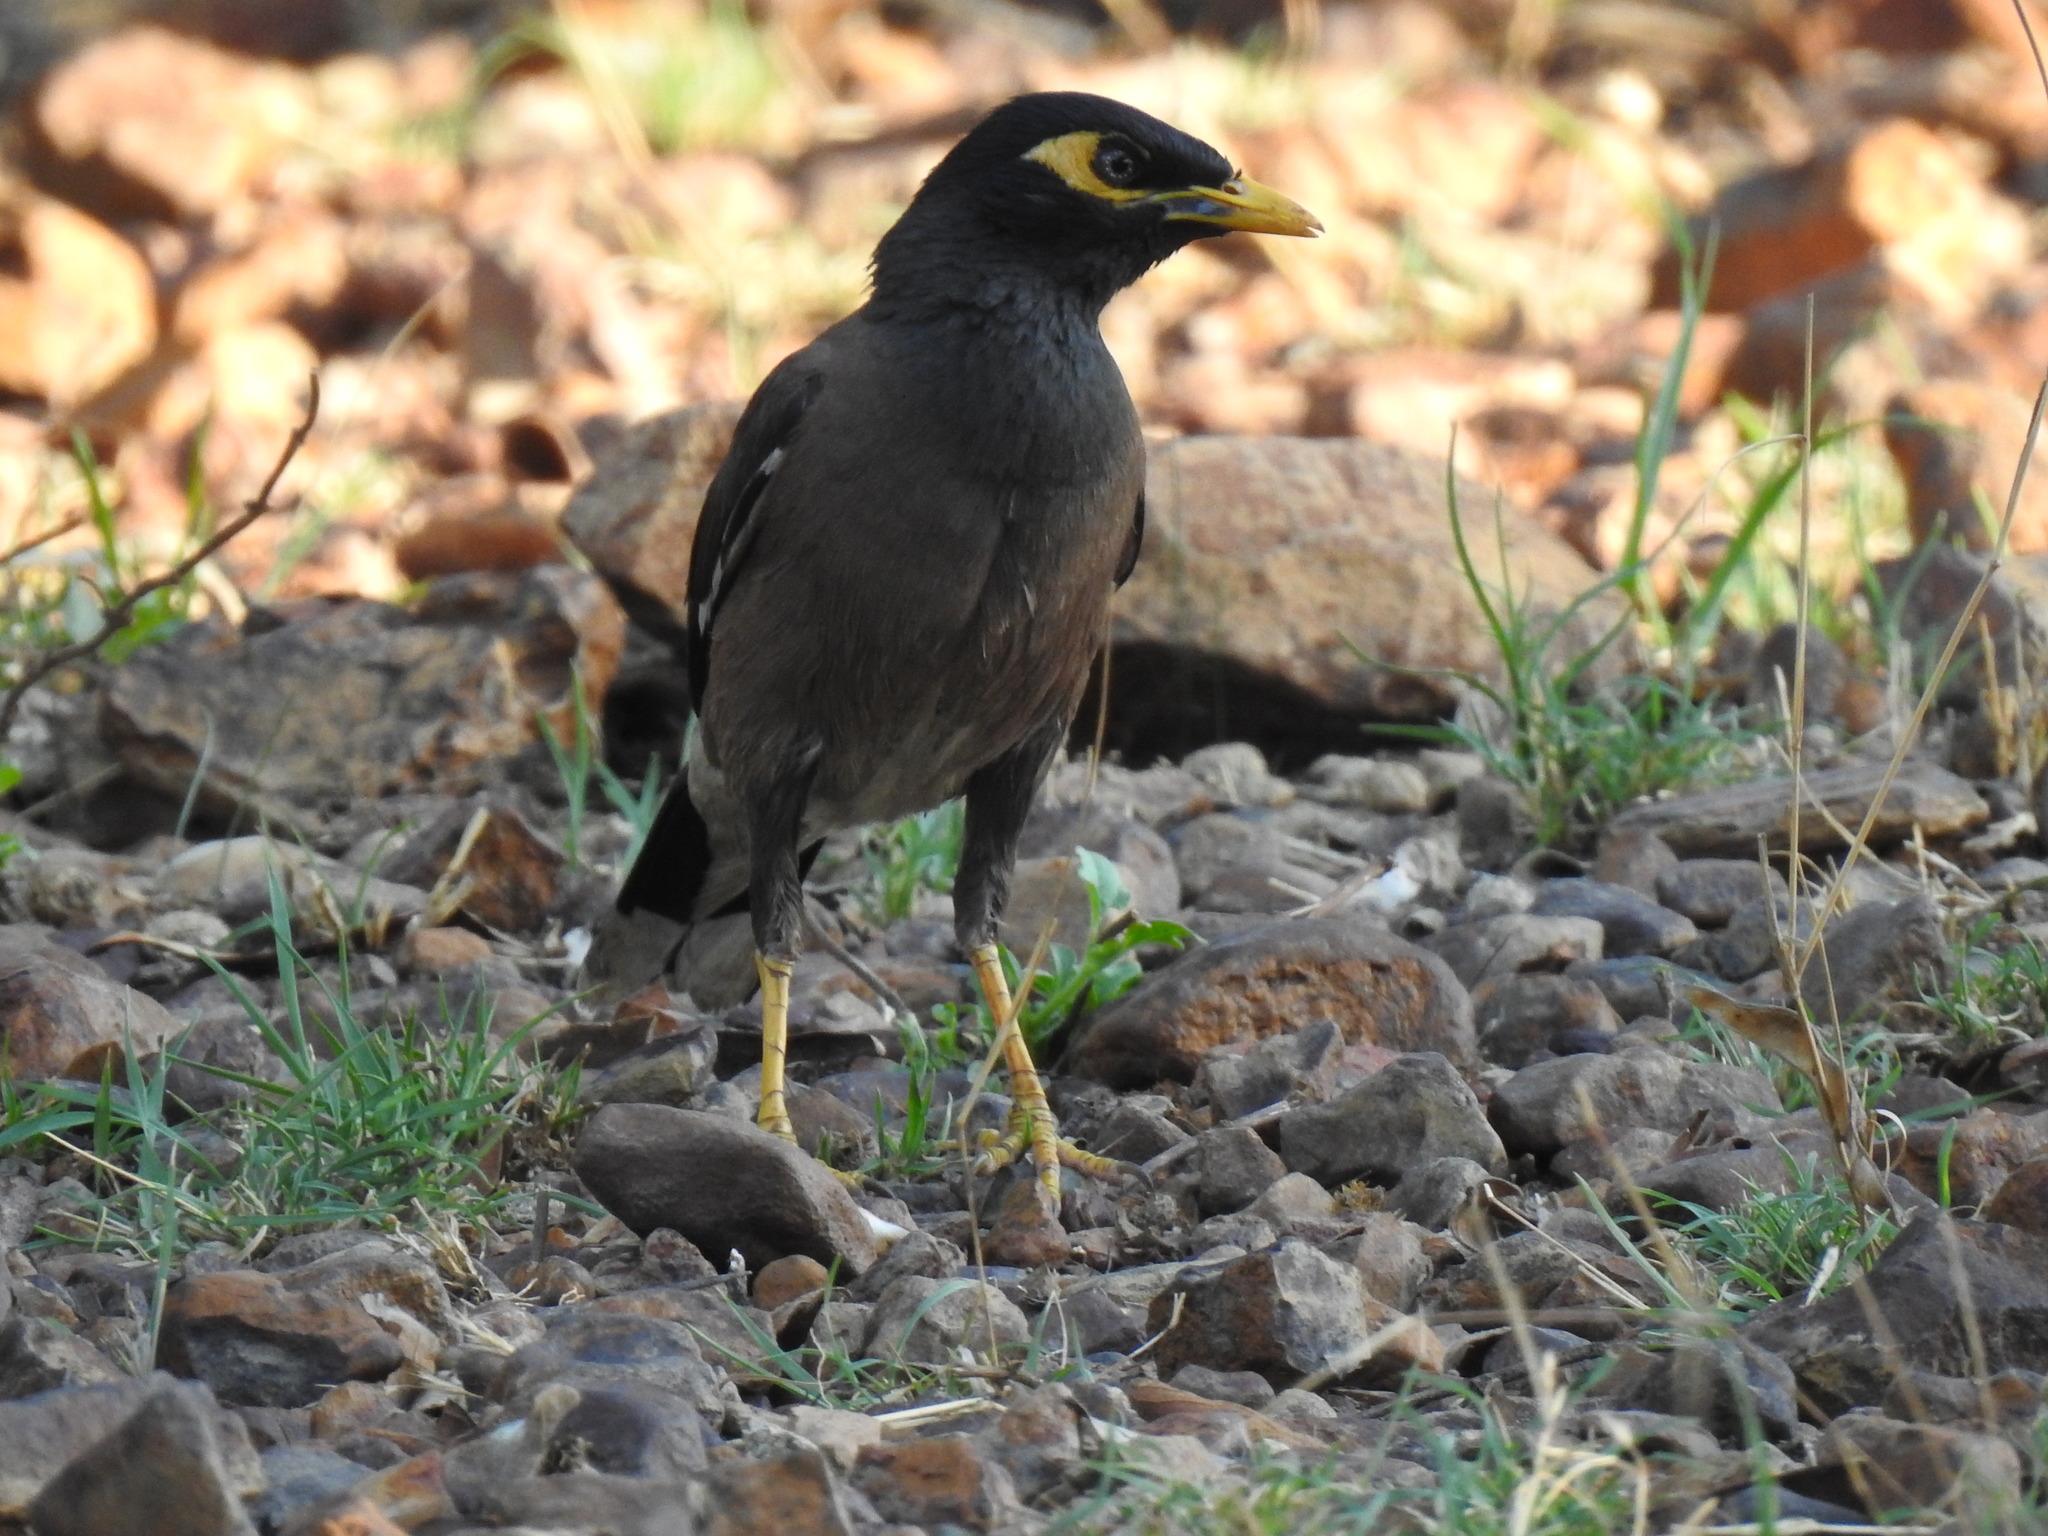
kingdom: Animalia
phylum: Chordata
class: Aves
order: Passeriformes
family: Sturnidae
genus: Acridotheres
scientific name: Acridotheres tristis
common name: Common myna
